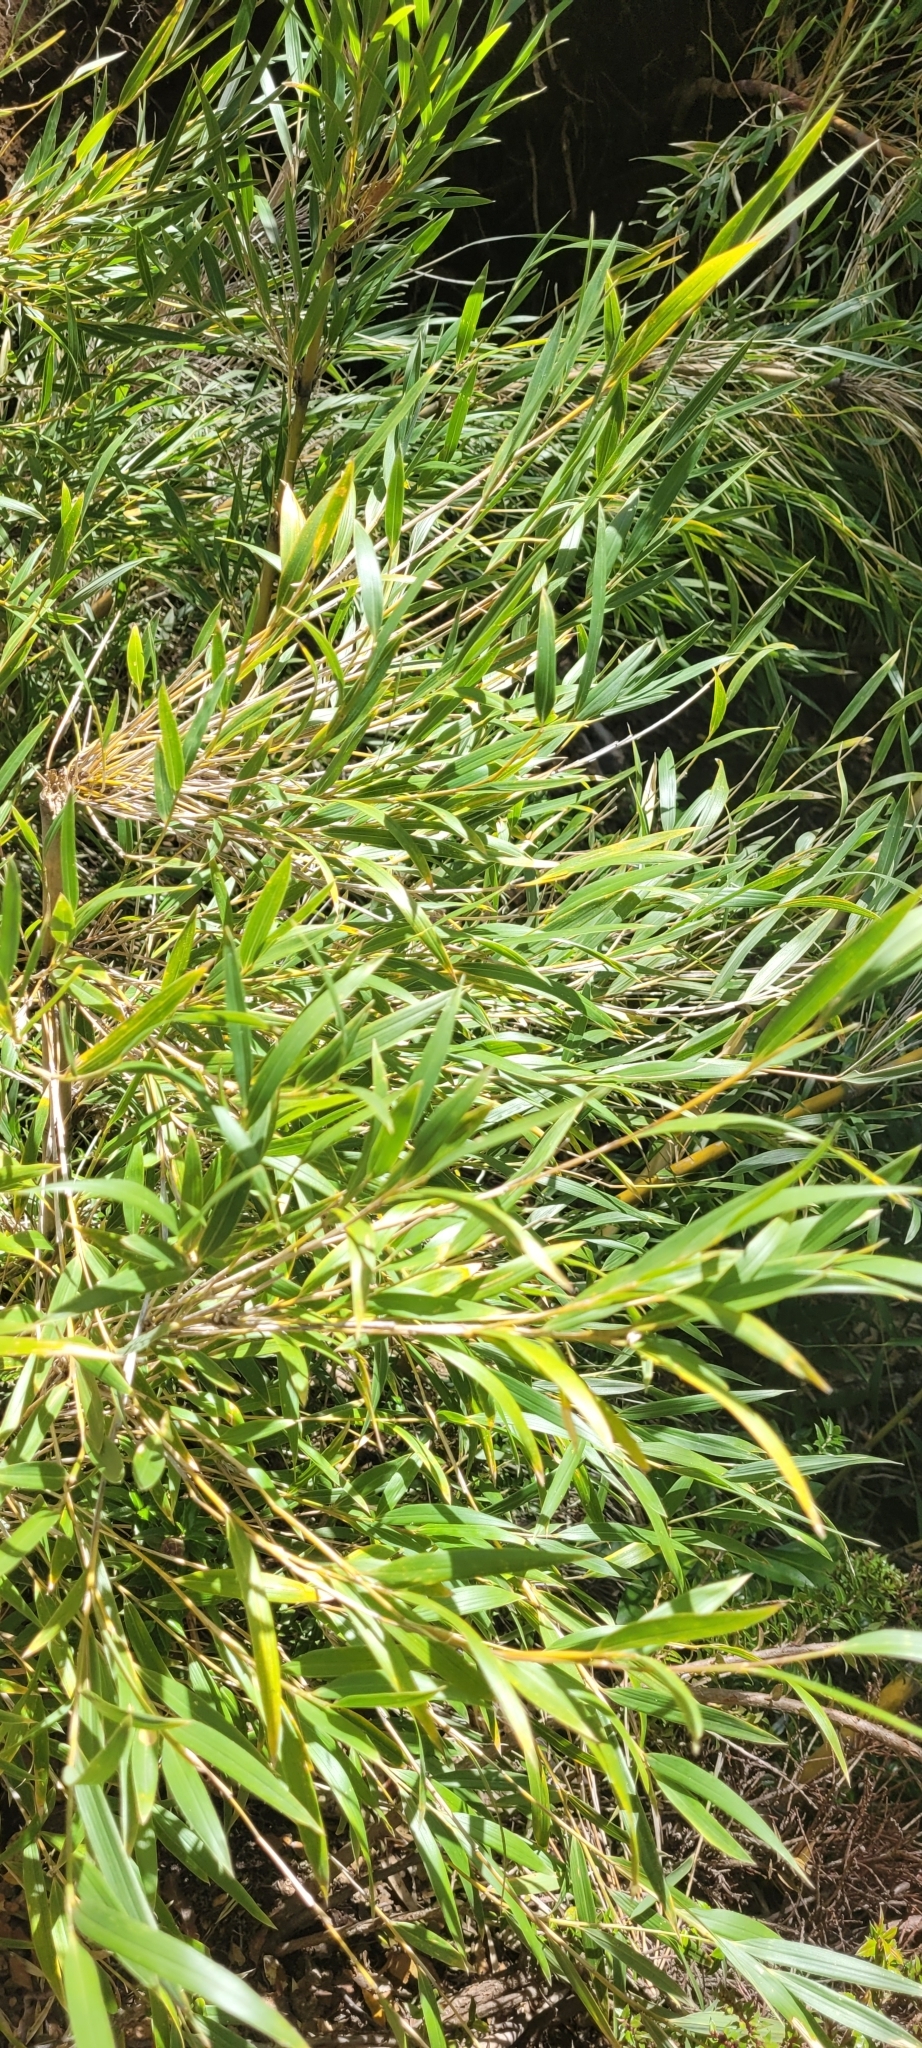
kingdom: Plantae
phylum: Tracheophyta
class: Liliopsida
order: Poales
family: Poaceae
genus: Chusquea
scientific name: Chusquea quila
